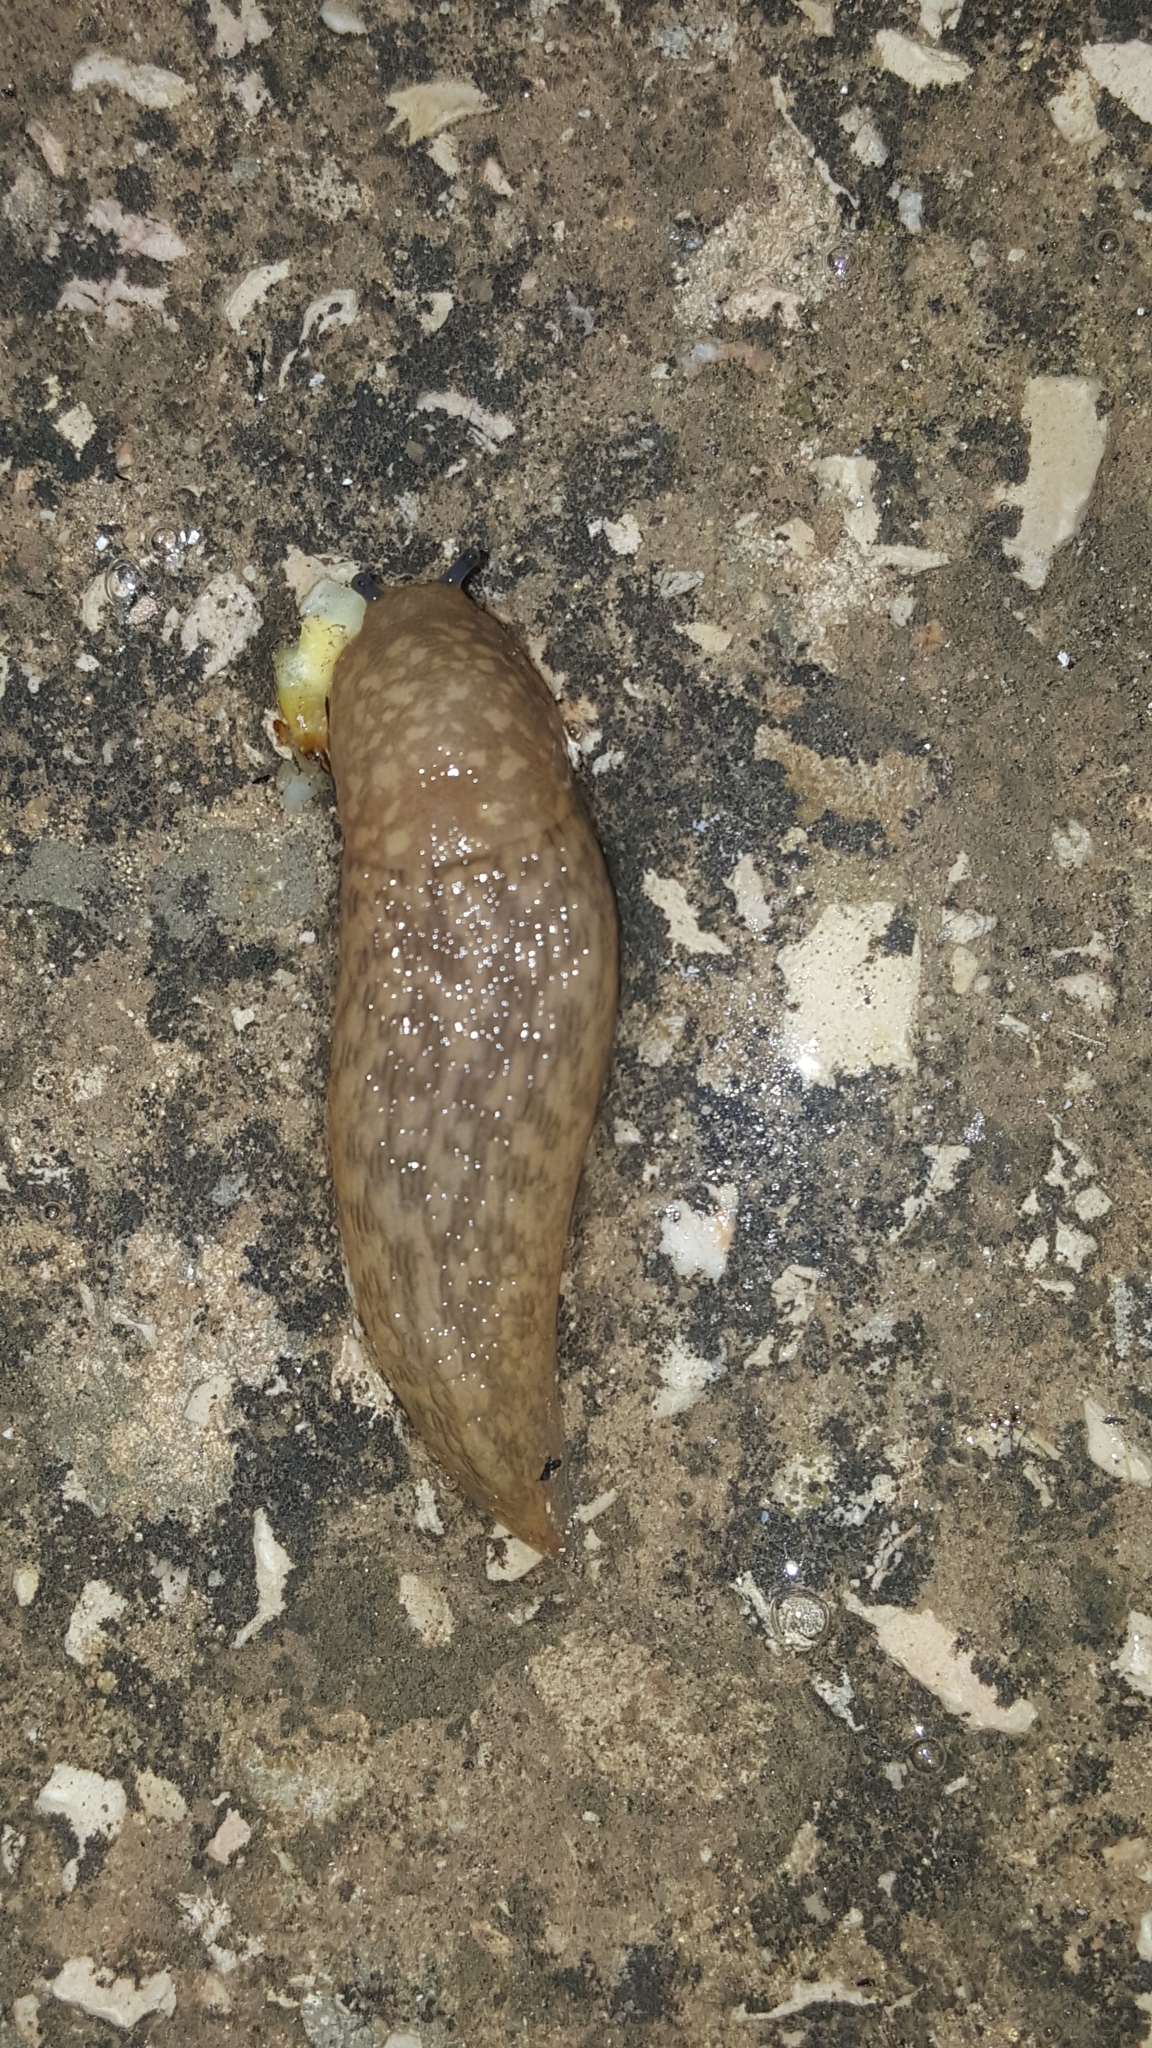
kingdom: Animalia
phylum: Mollusca
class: Gastropoda
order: Stylommatophora
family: Limacidae
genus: Limacus
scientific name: Limacus flavus
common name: Yellow gardenslug
